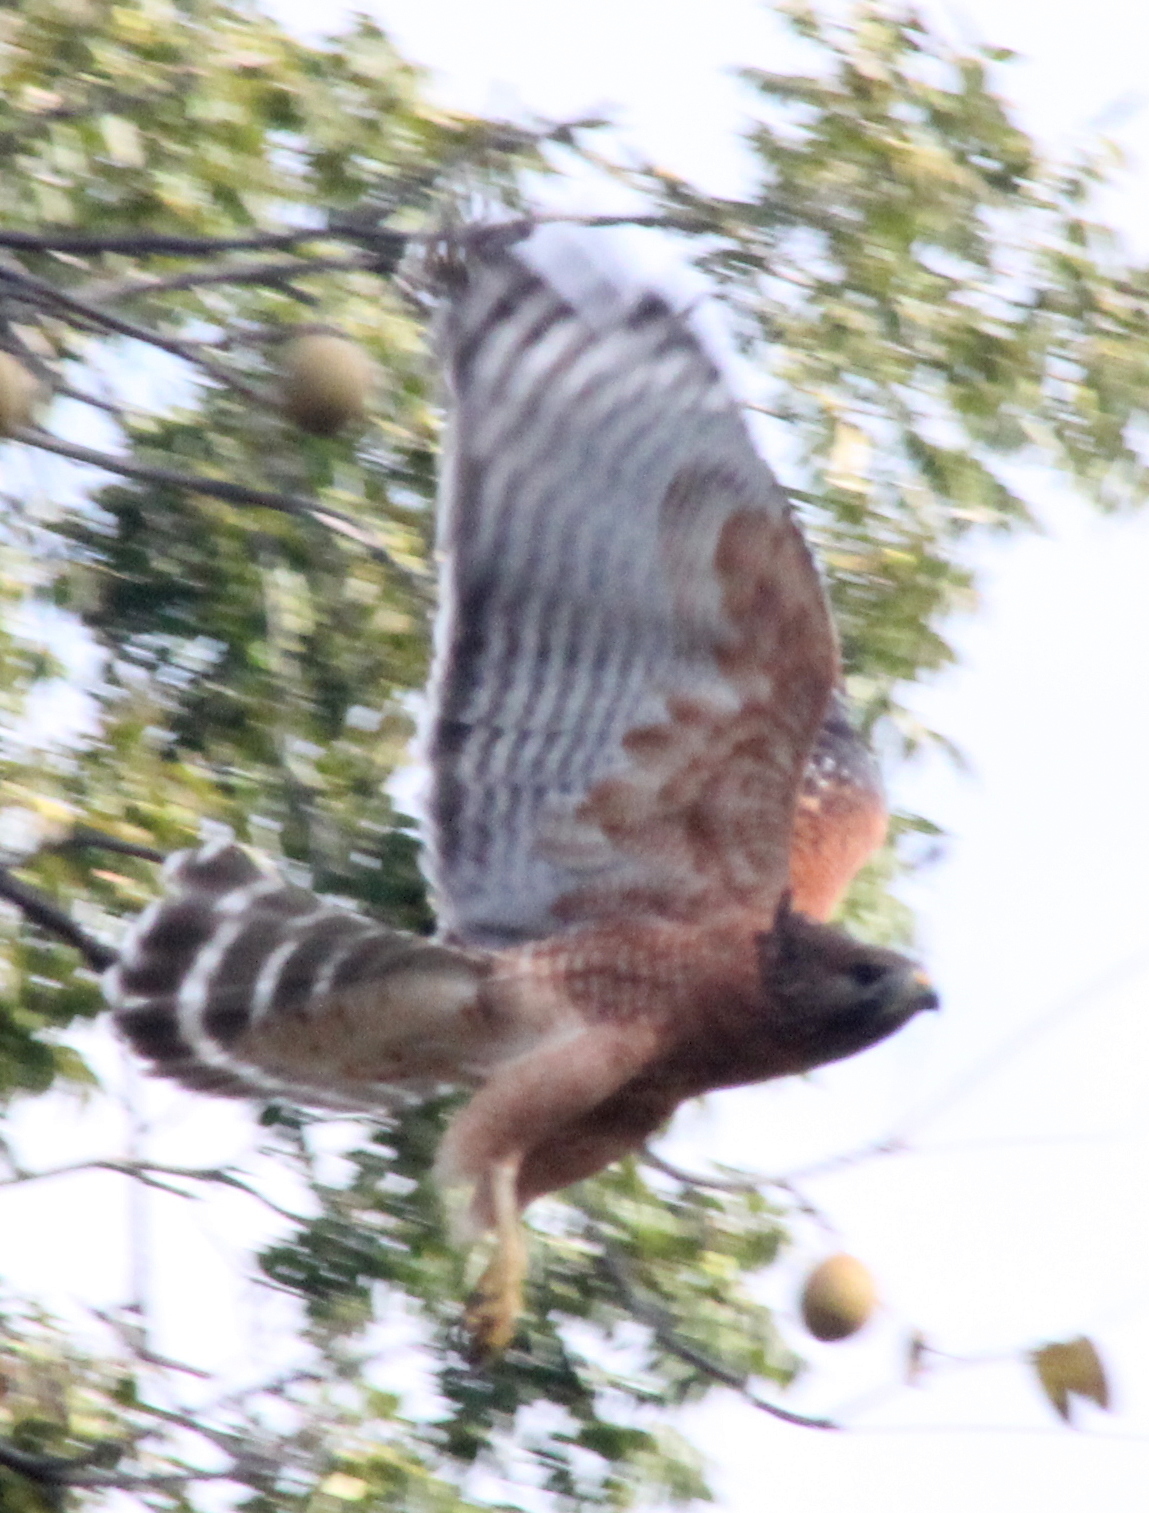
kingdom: Animalia
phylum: Chordata
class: Aves
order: Accipitriformes
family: Accipitridae
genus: Buteo
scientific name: Buteo lineatus
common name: Red-shouldered hawk
